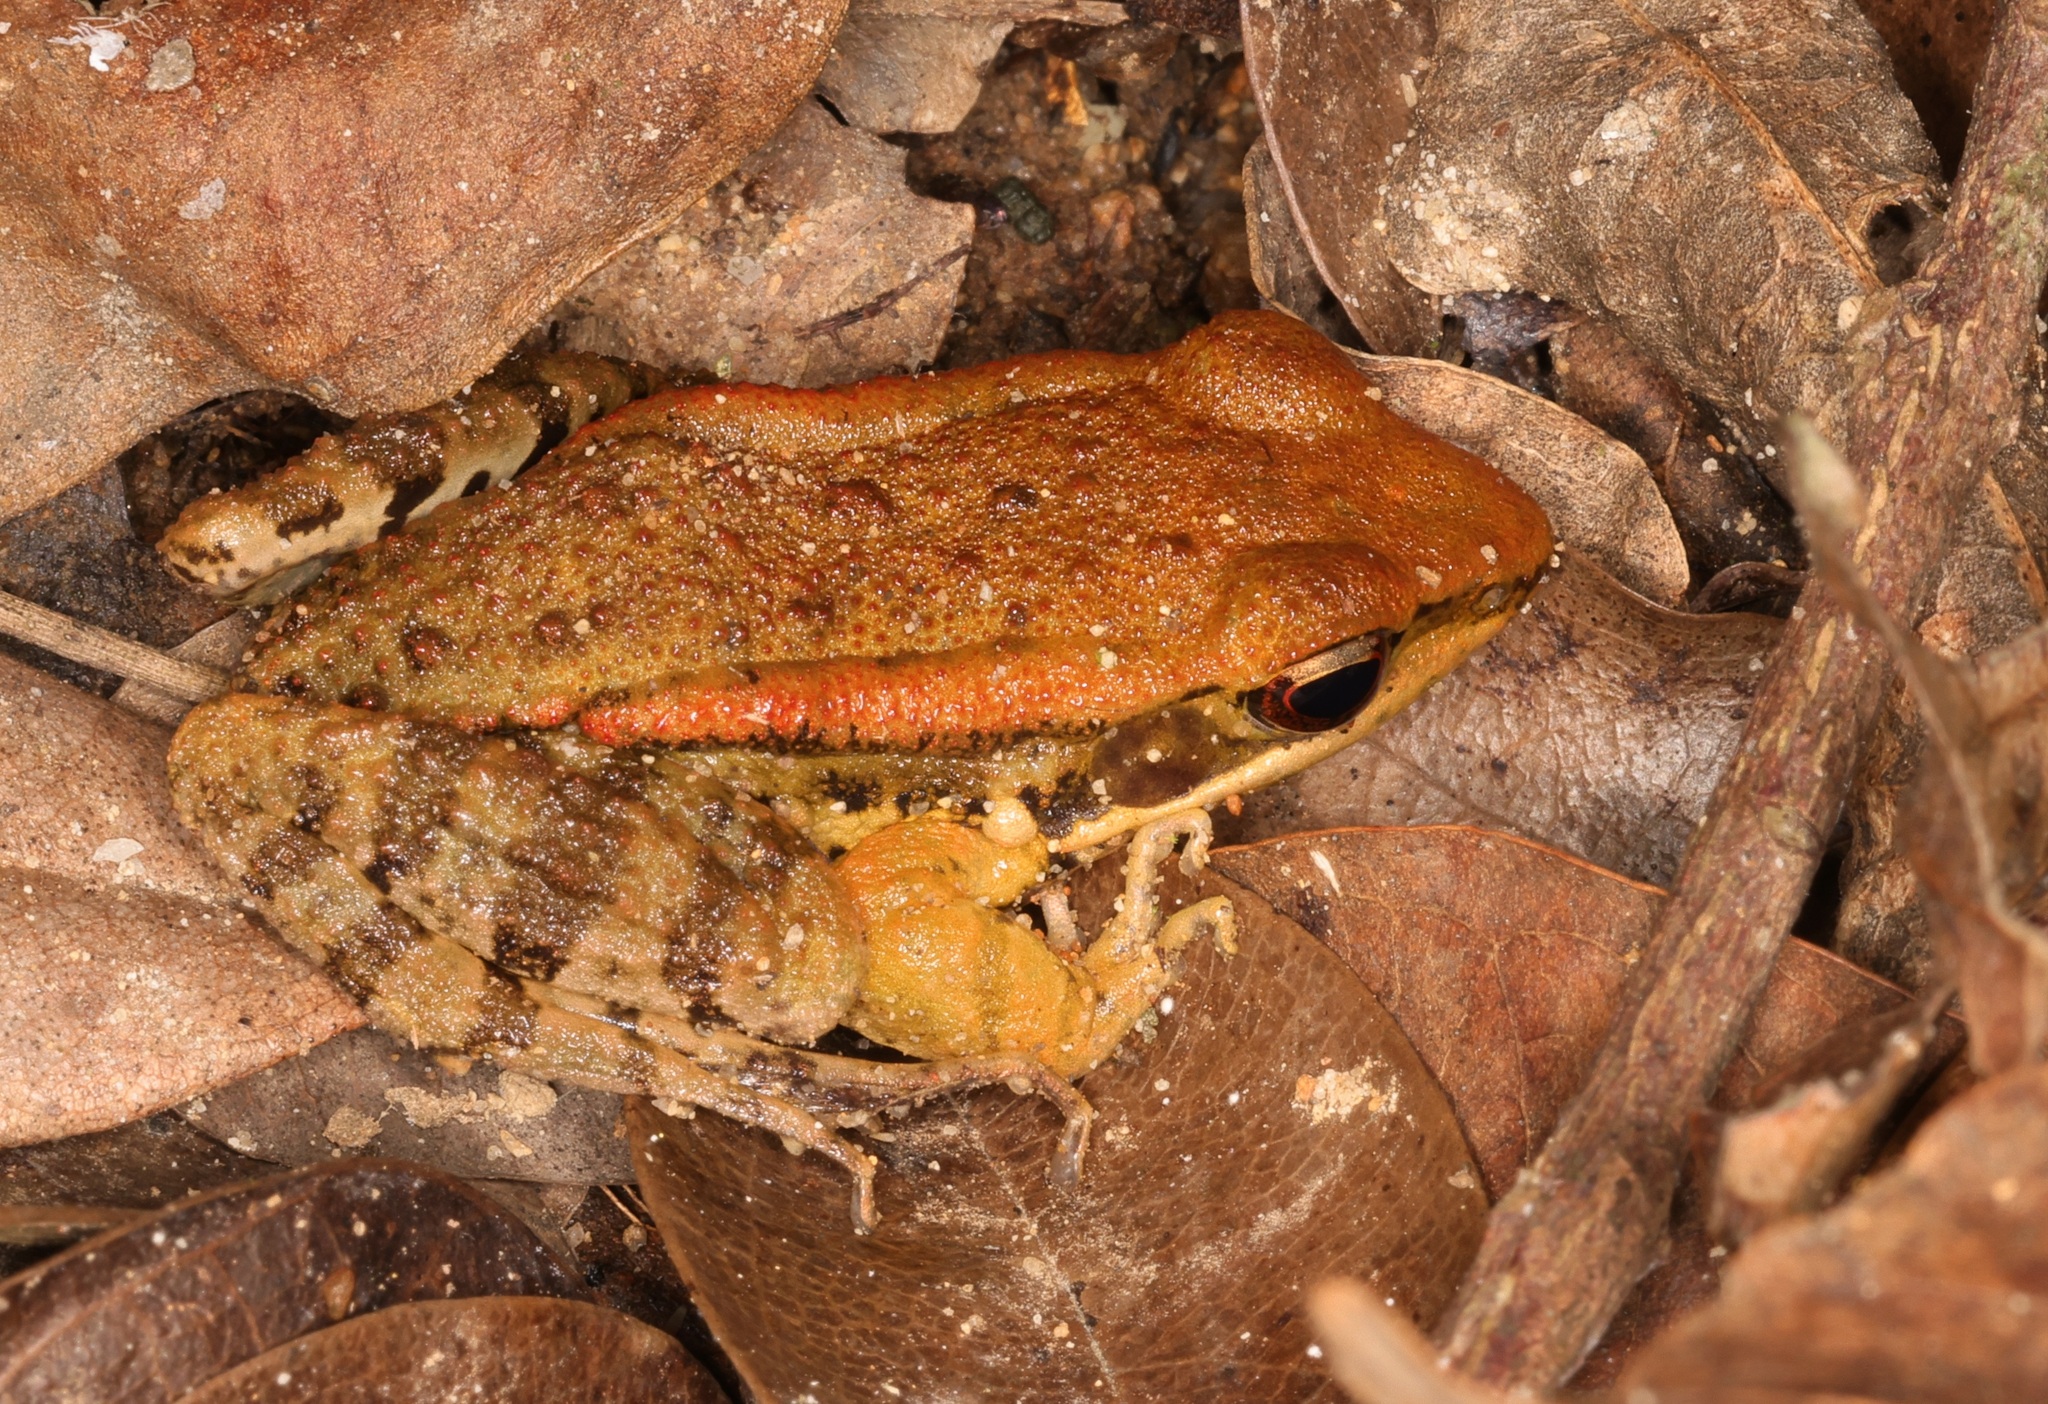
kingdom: Animalia
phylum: Chordata
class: Amphibia
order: Anura
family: Ranidae
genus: Hylarana
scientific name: Hylarana latouchii
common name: Broad-folded frog
